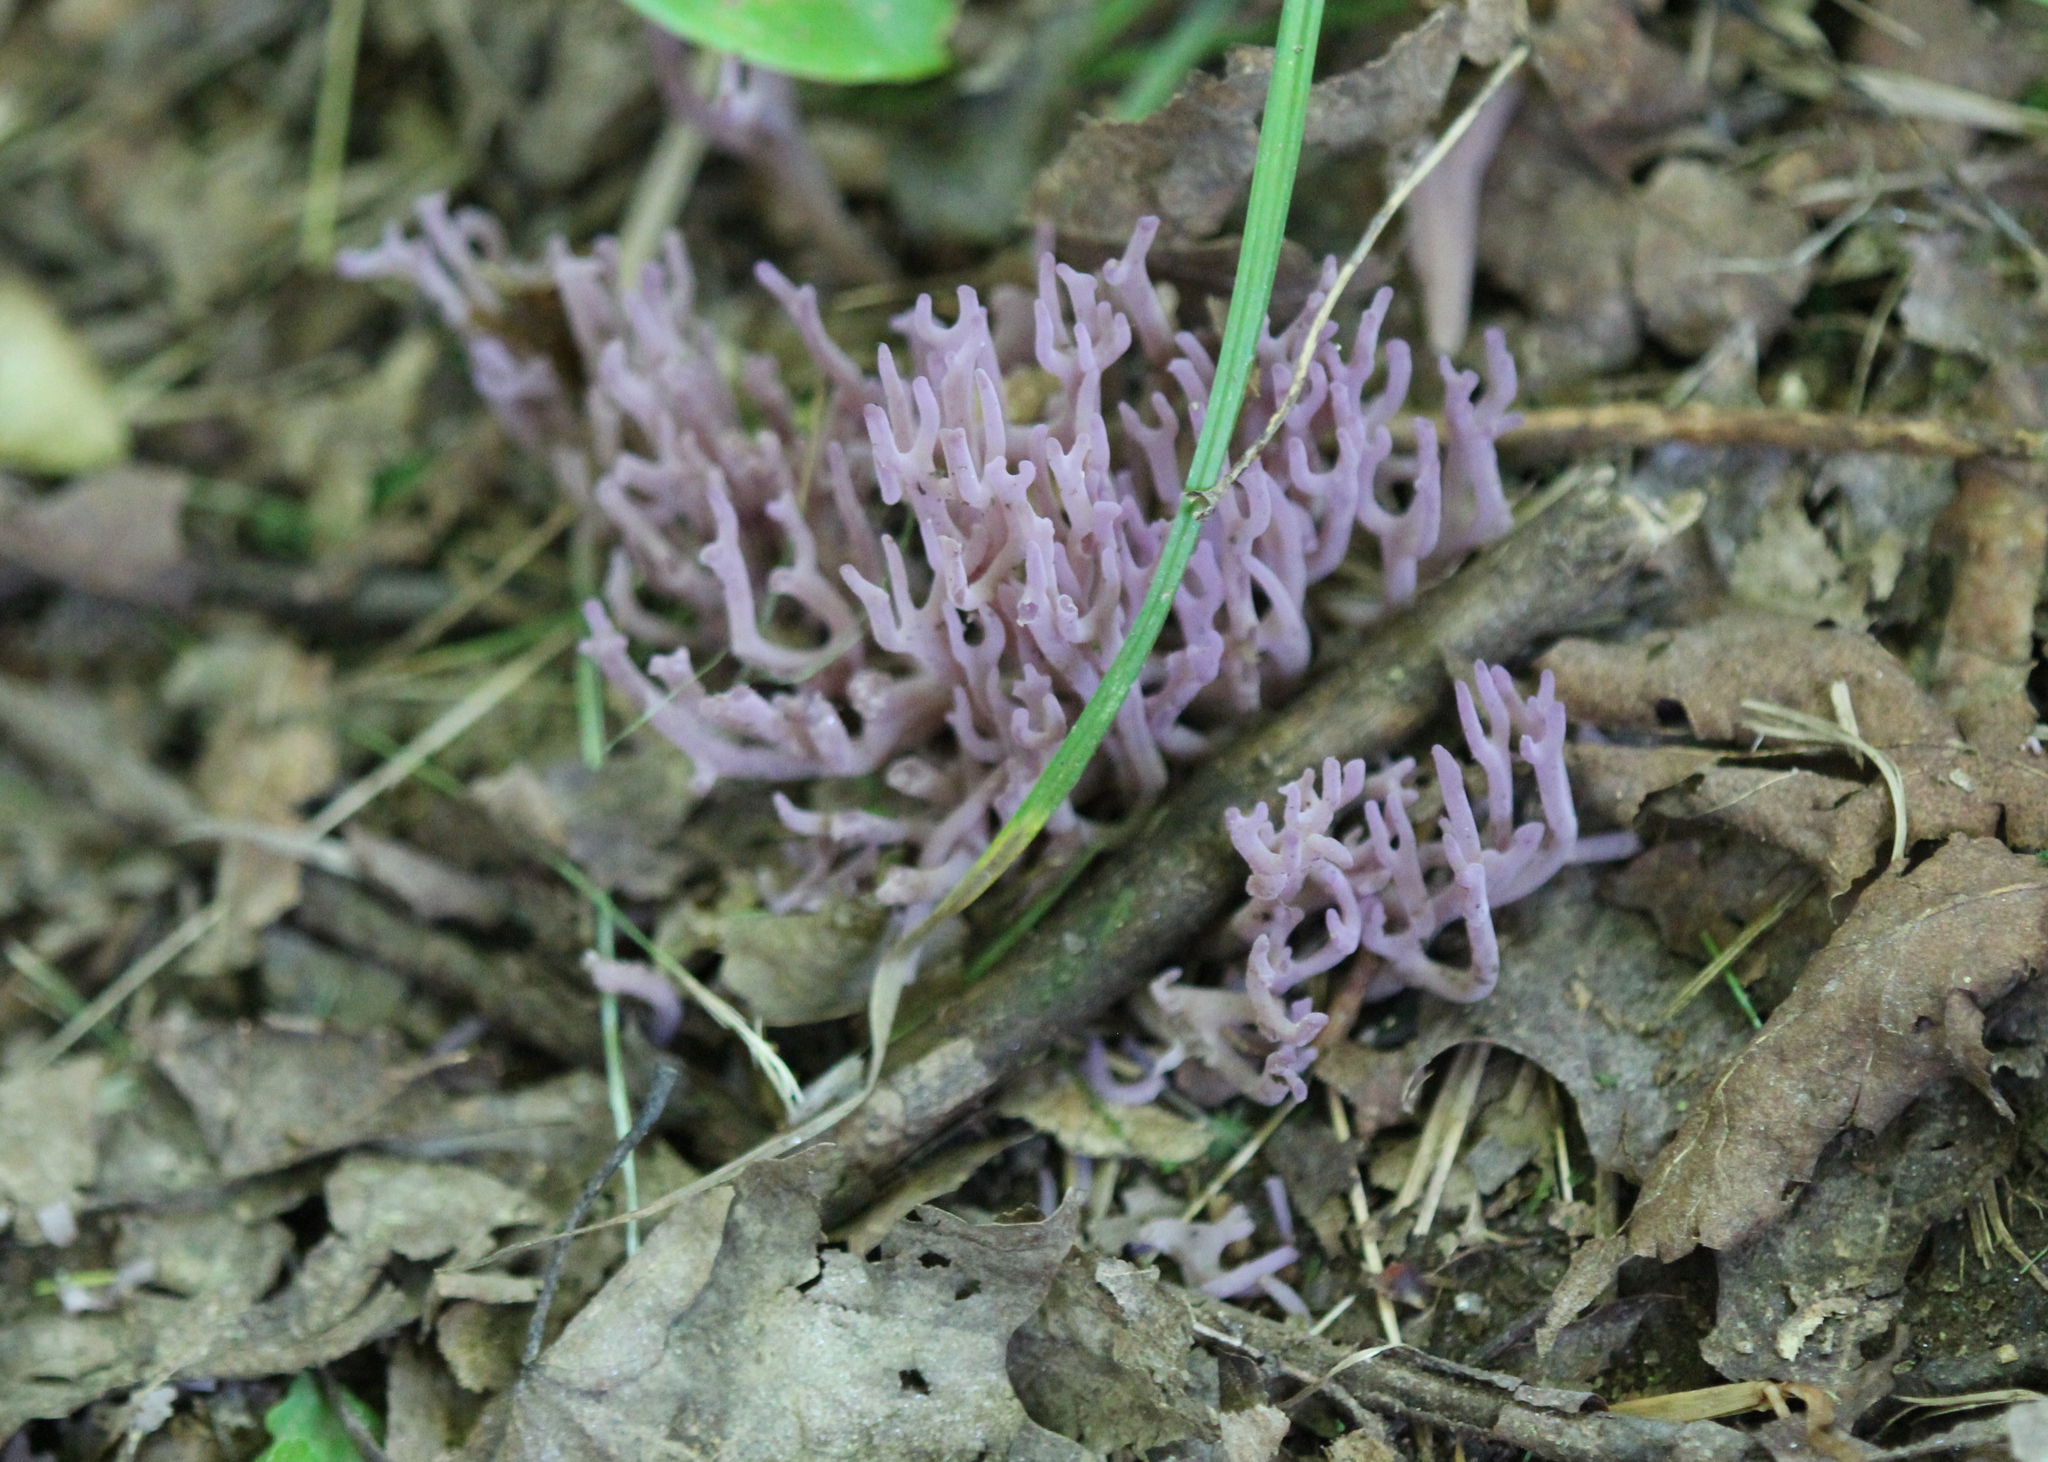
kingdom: Fungi
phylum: Basidiomycota
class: Agaricomycetes
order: Agaricales
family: Clavariaceae
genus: Clavaria
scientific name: Clavaria zollingeri
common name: Violet coral
